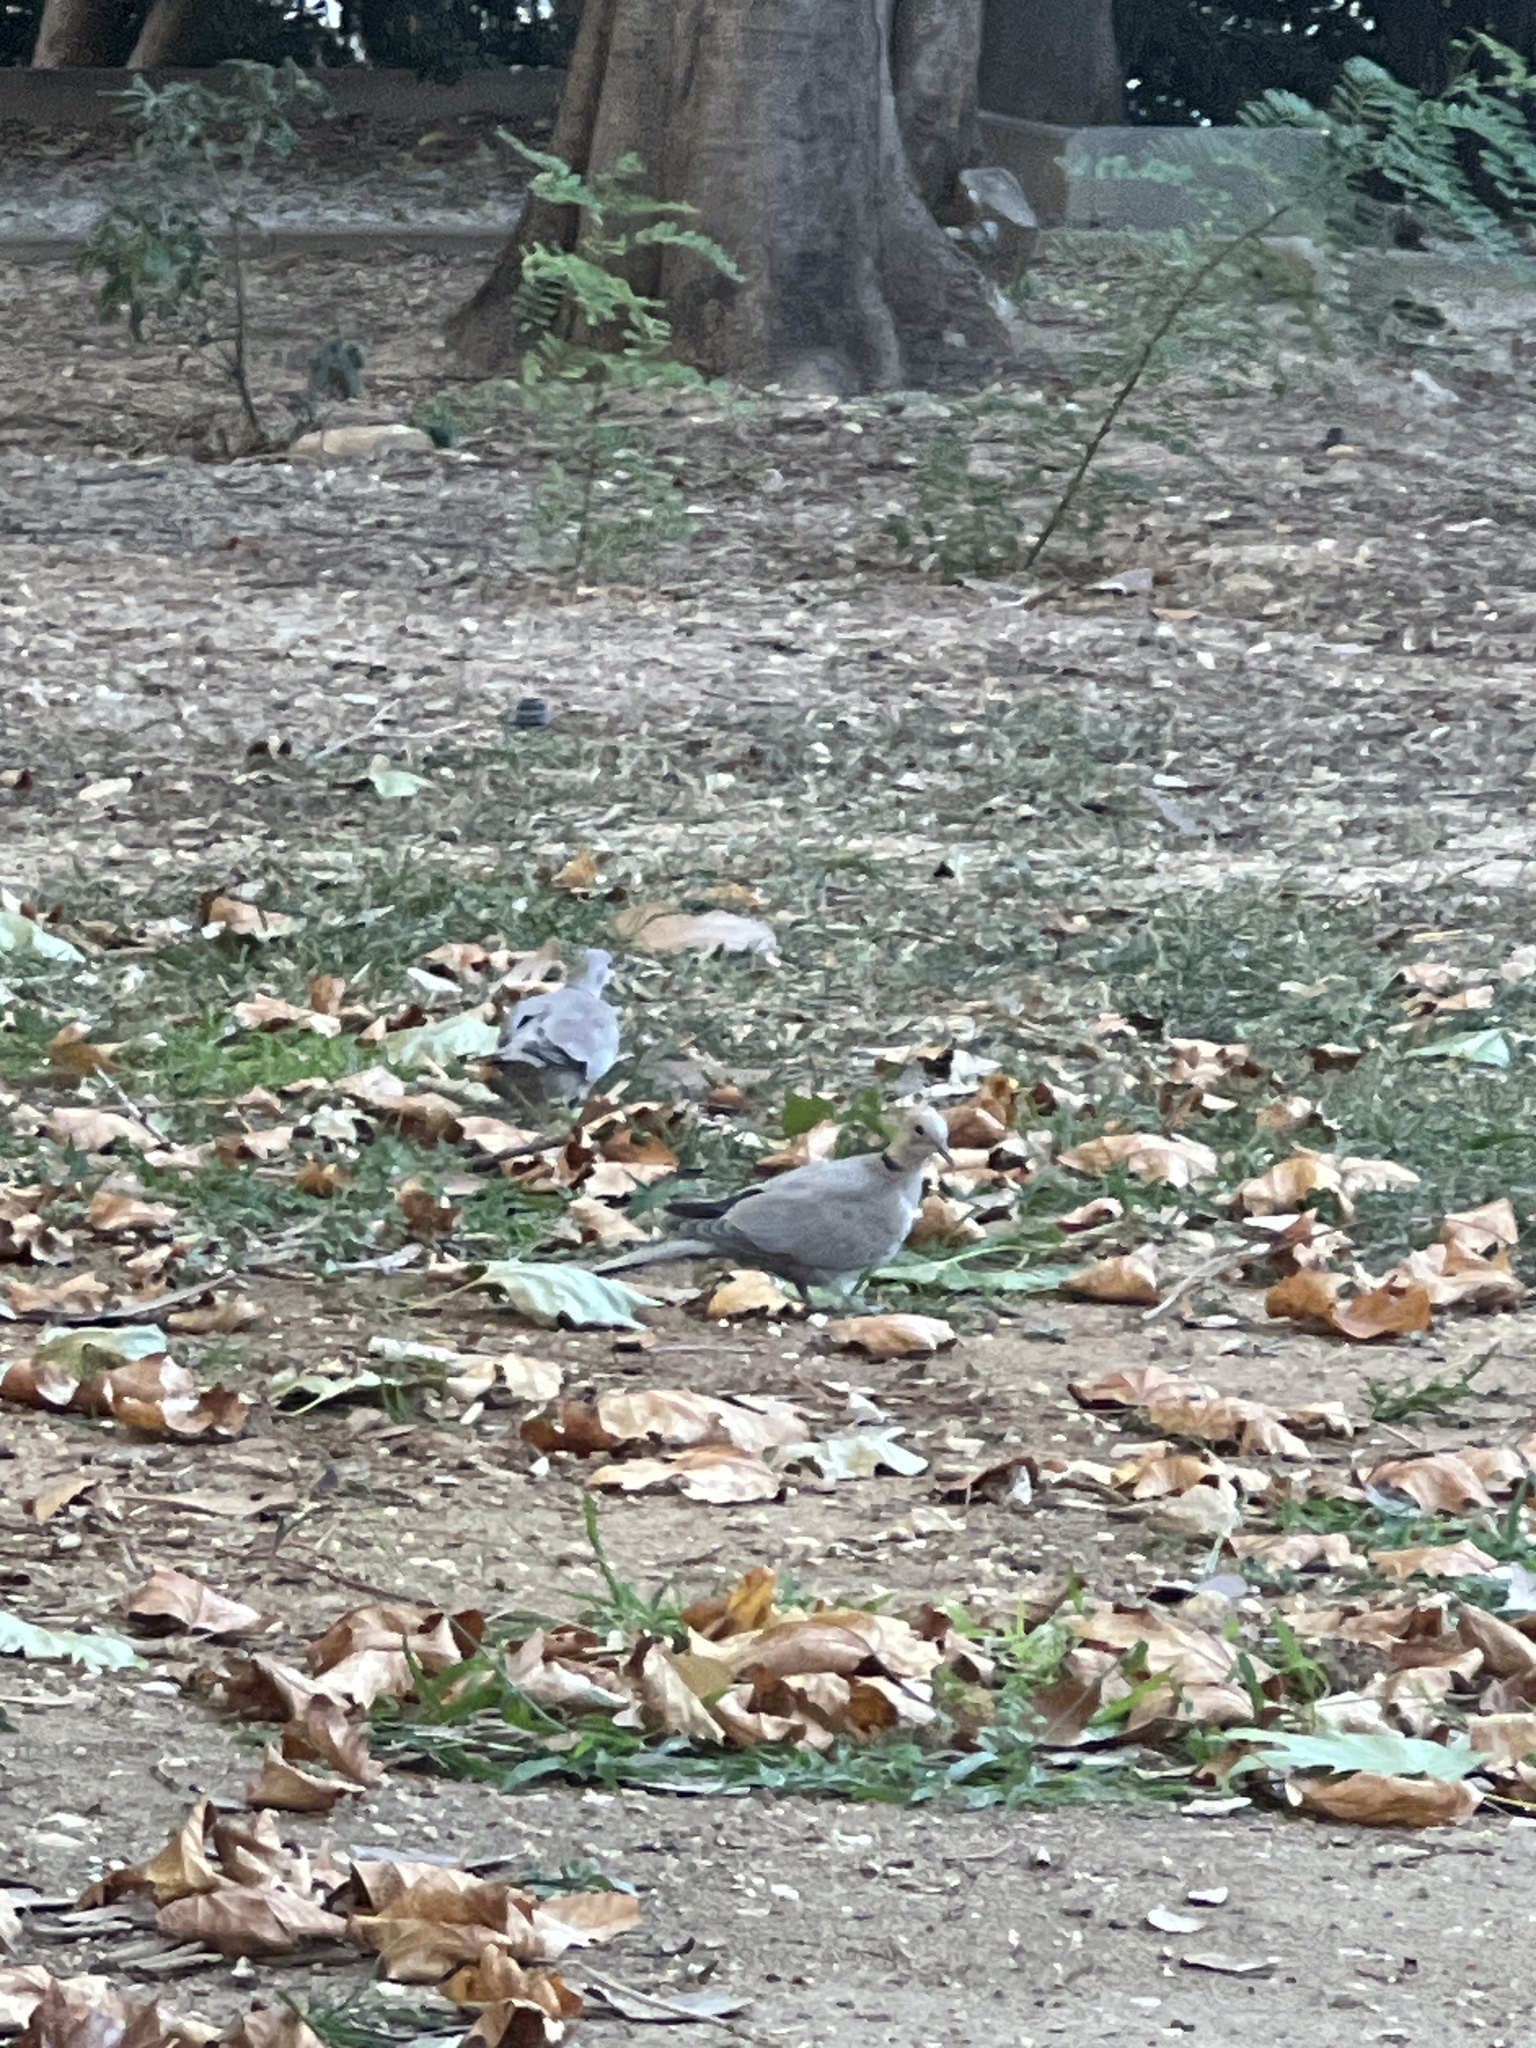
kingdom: Animalia
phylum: Chordata
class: Aves
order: Columbiformes
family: Columbidae
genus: Streptopelia
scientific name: Streptopelia decaocto
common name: Eurasian collared dove
